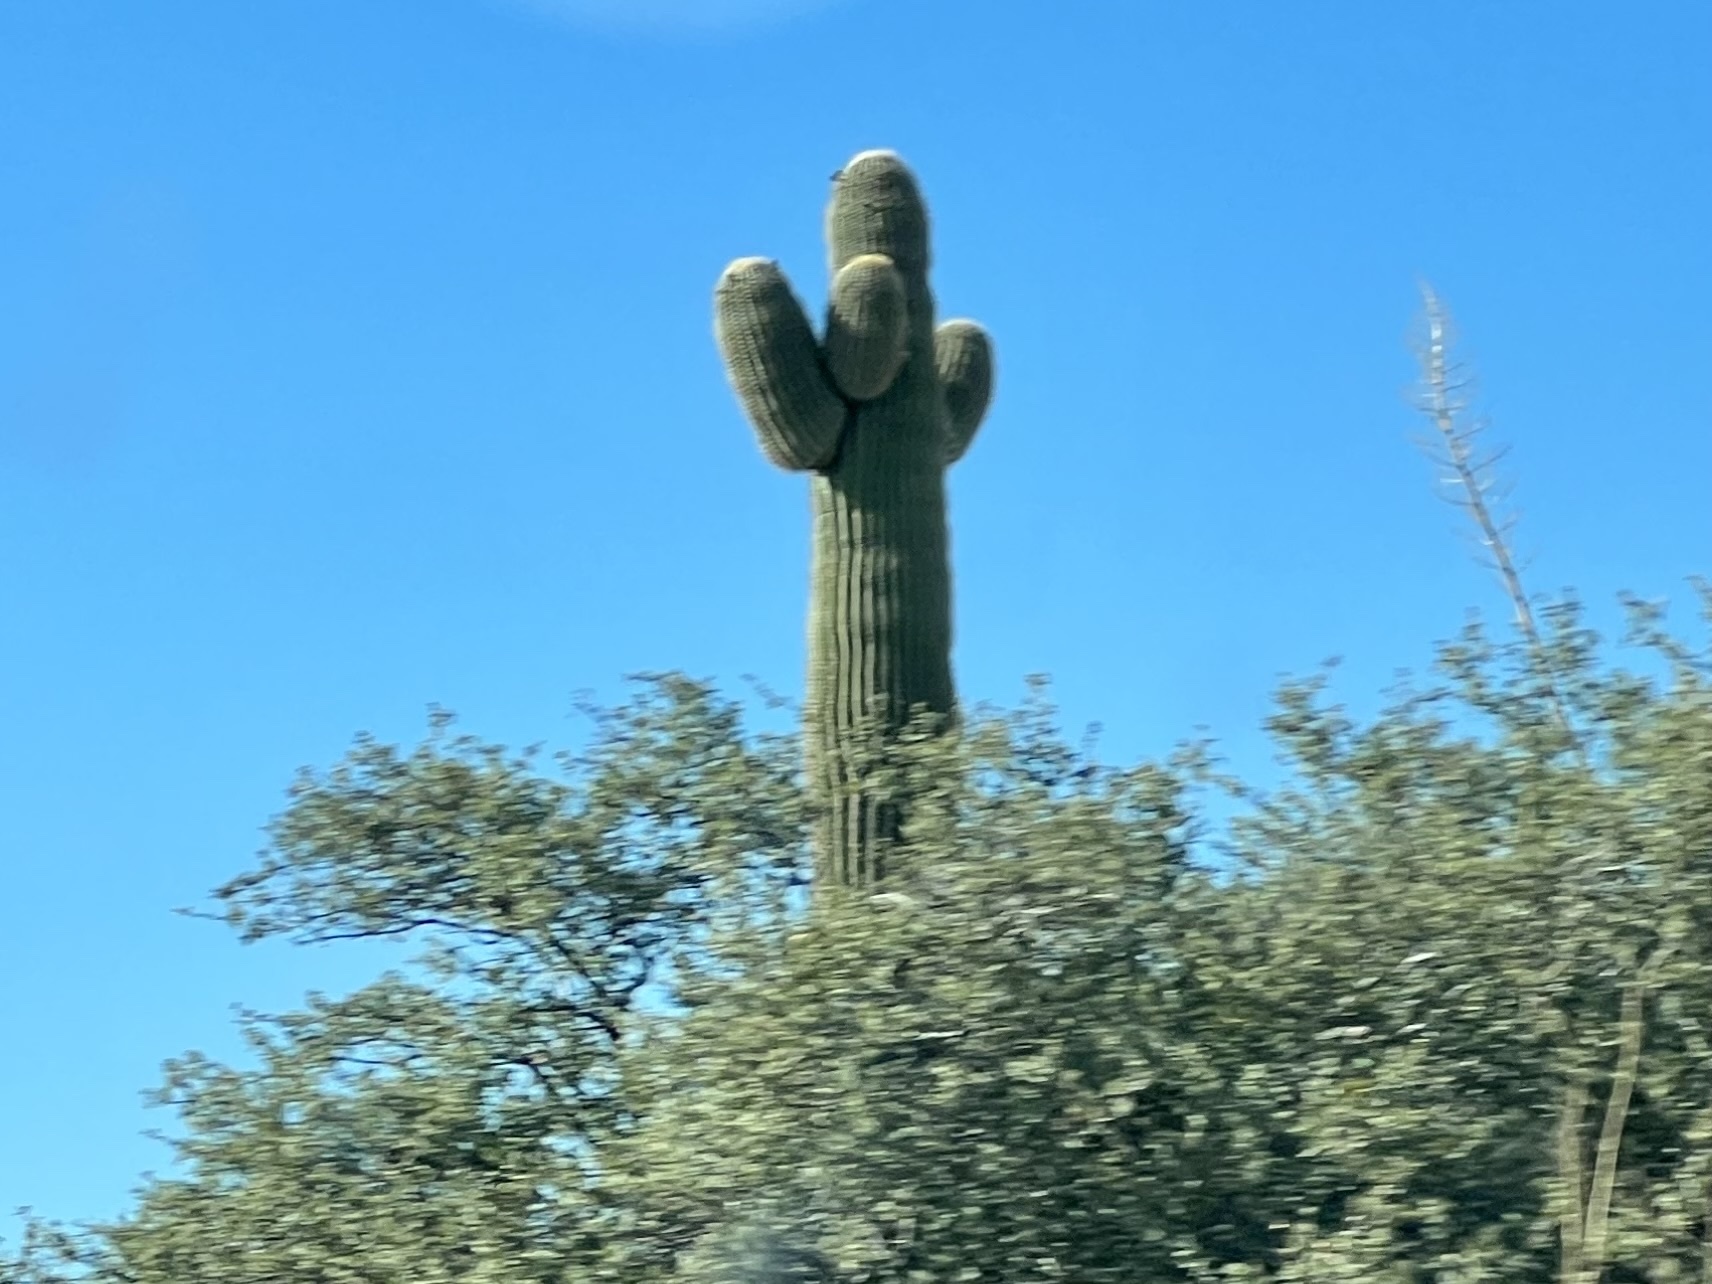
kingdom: Plantae
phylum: Tracheophyta
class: Magnoliopsida
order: Caryophyllales
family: Cactaceae
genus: Carnegiea
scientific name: Carnegiea gigantea
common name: Saguaro
